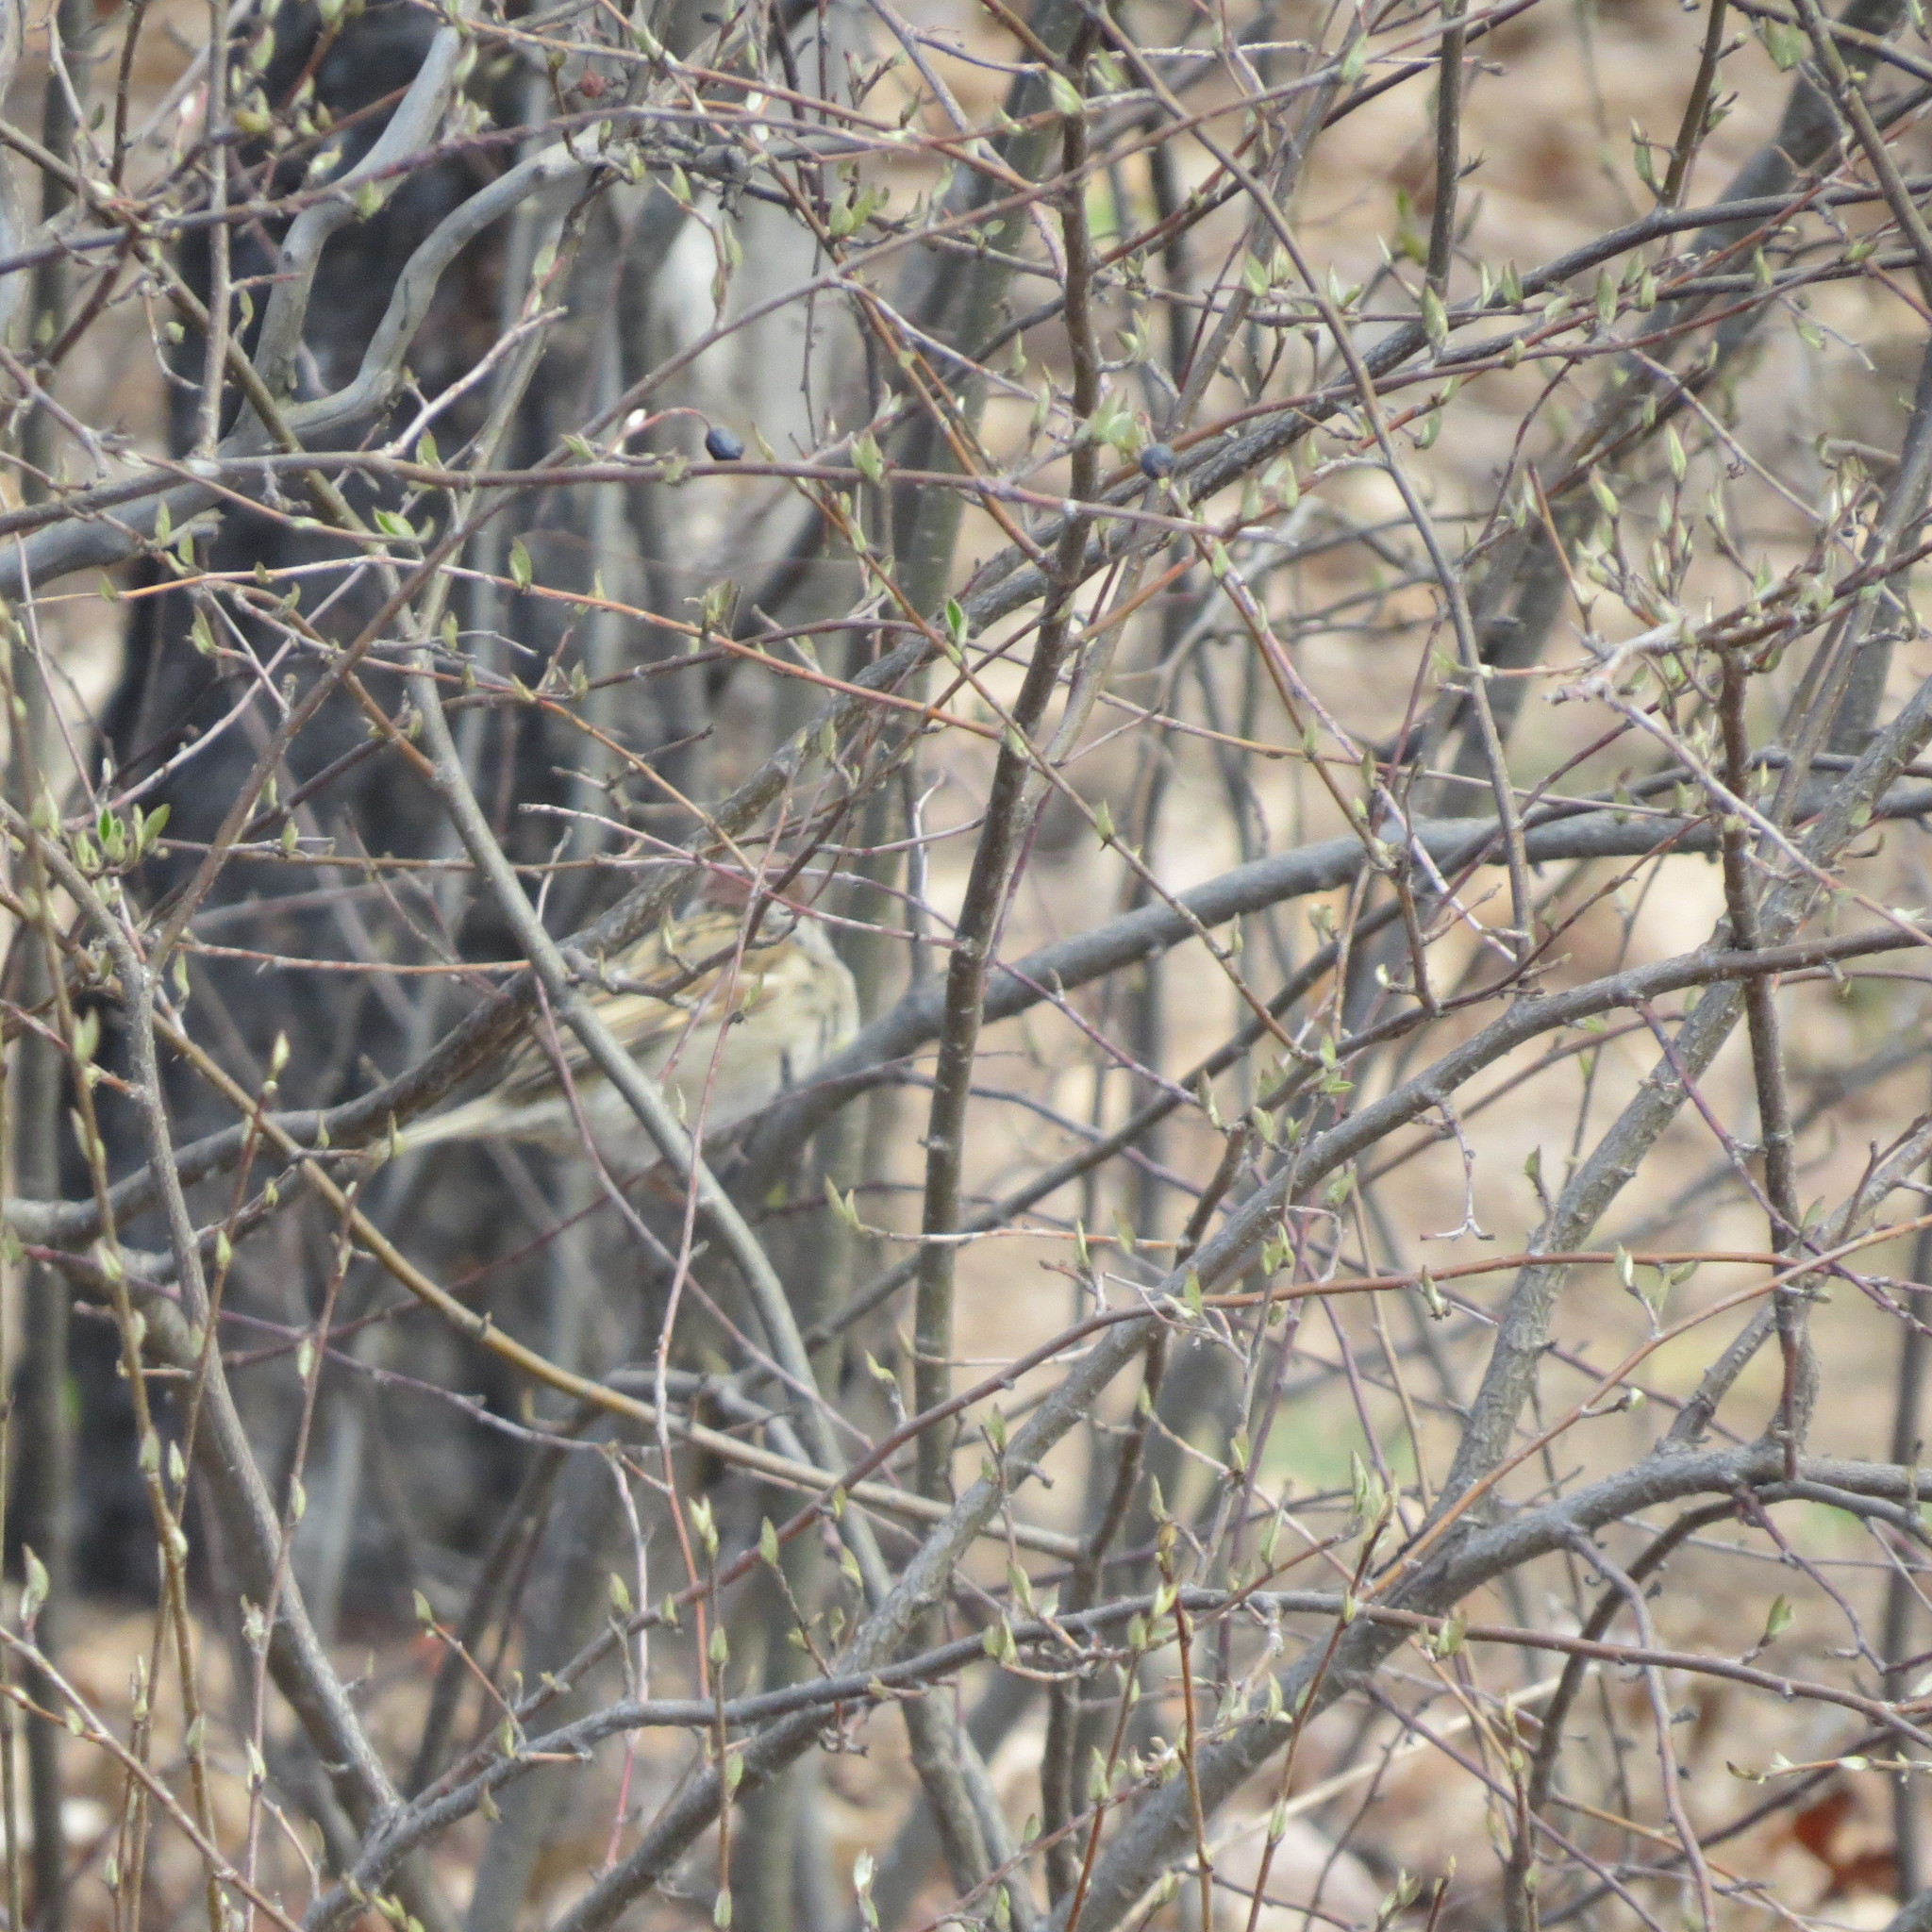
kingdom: Animalia
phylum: Chordata
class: Aves
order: Passeriformes
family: Passeridae
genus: Passer
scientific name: Passer montanus
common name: Eurasian tree sparrow
